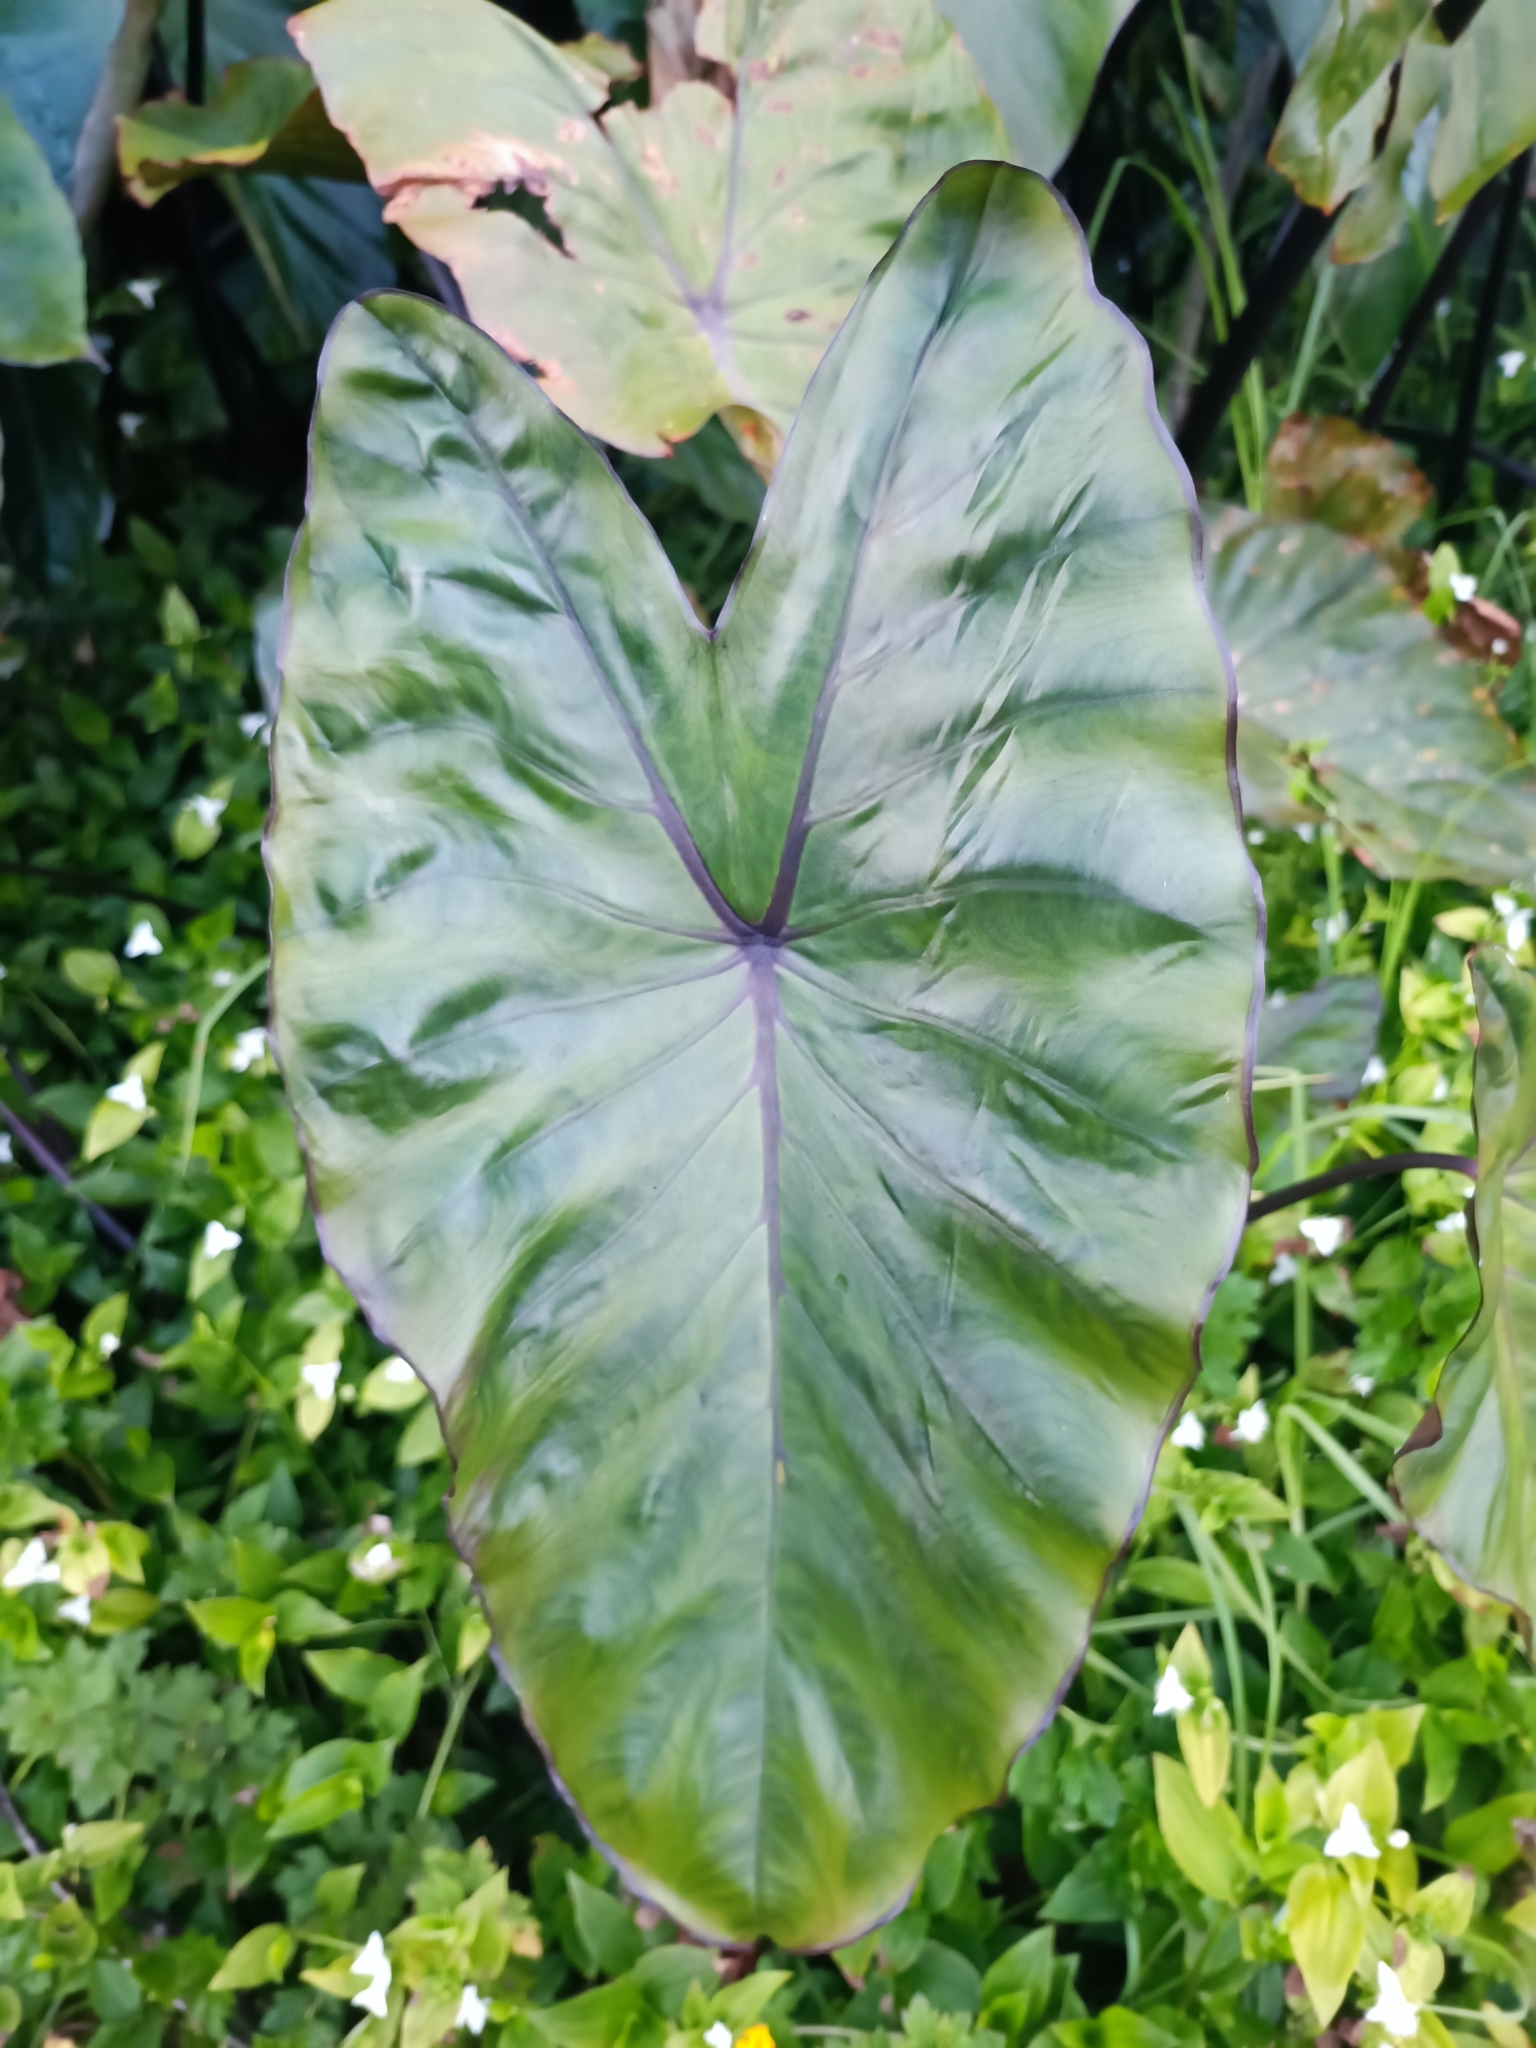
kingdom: Plantae
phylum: Tracheophyta
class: Liliopsida
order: Alismatales
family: Araceae
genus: Colocasia
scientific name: Colocasia fontanesii
